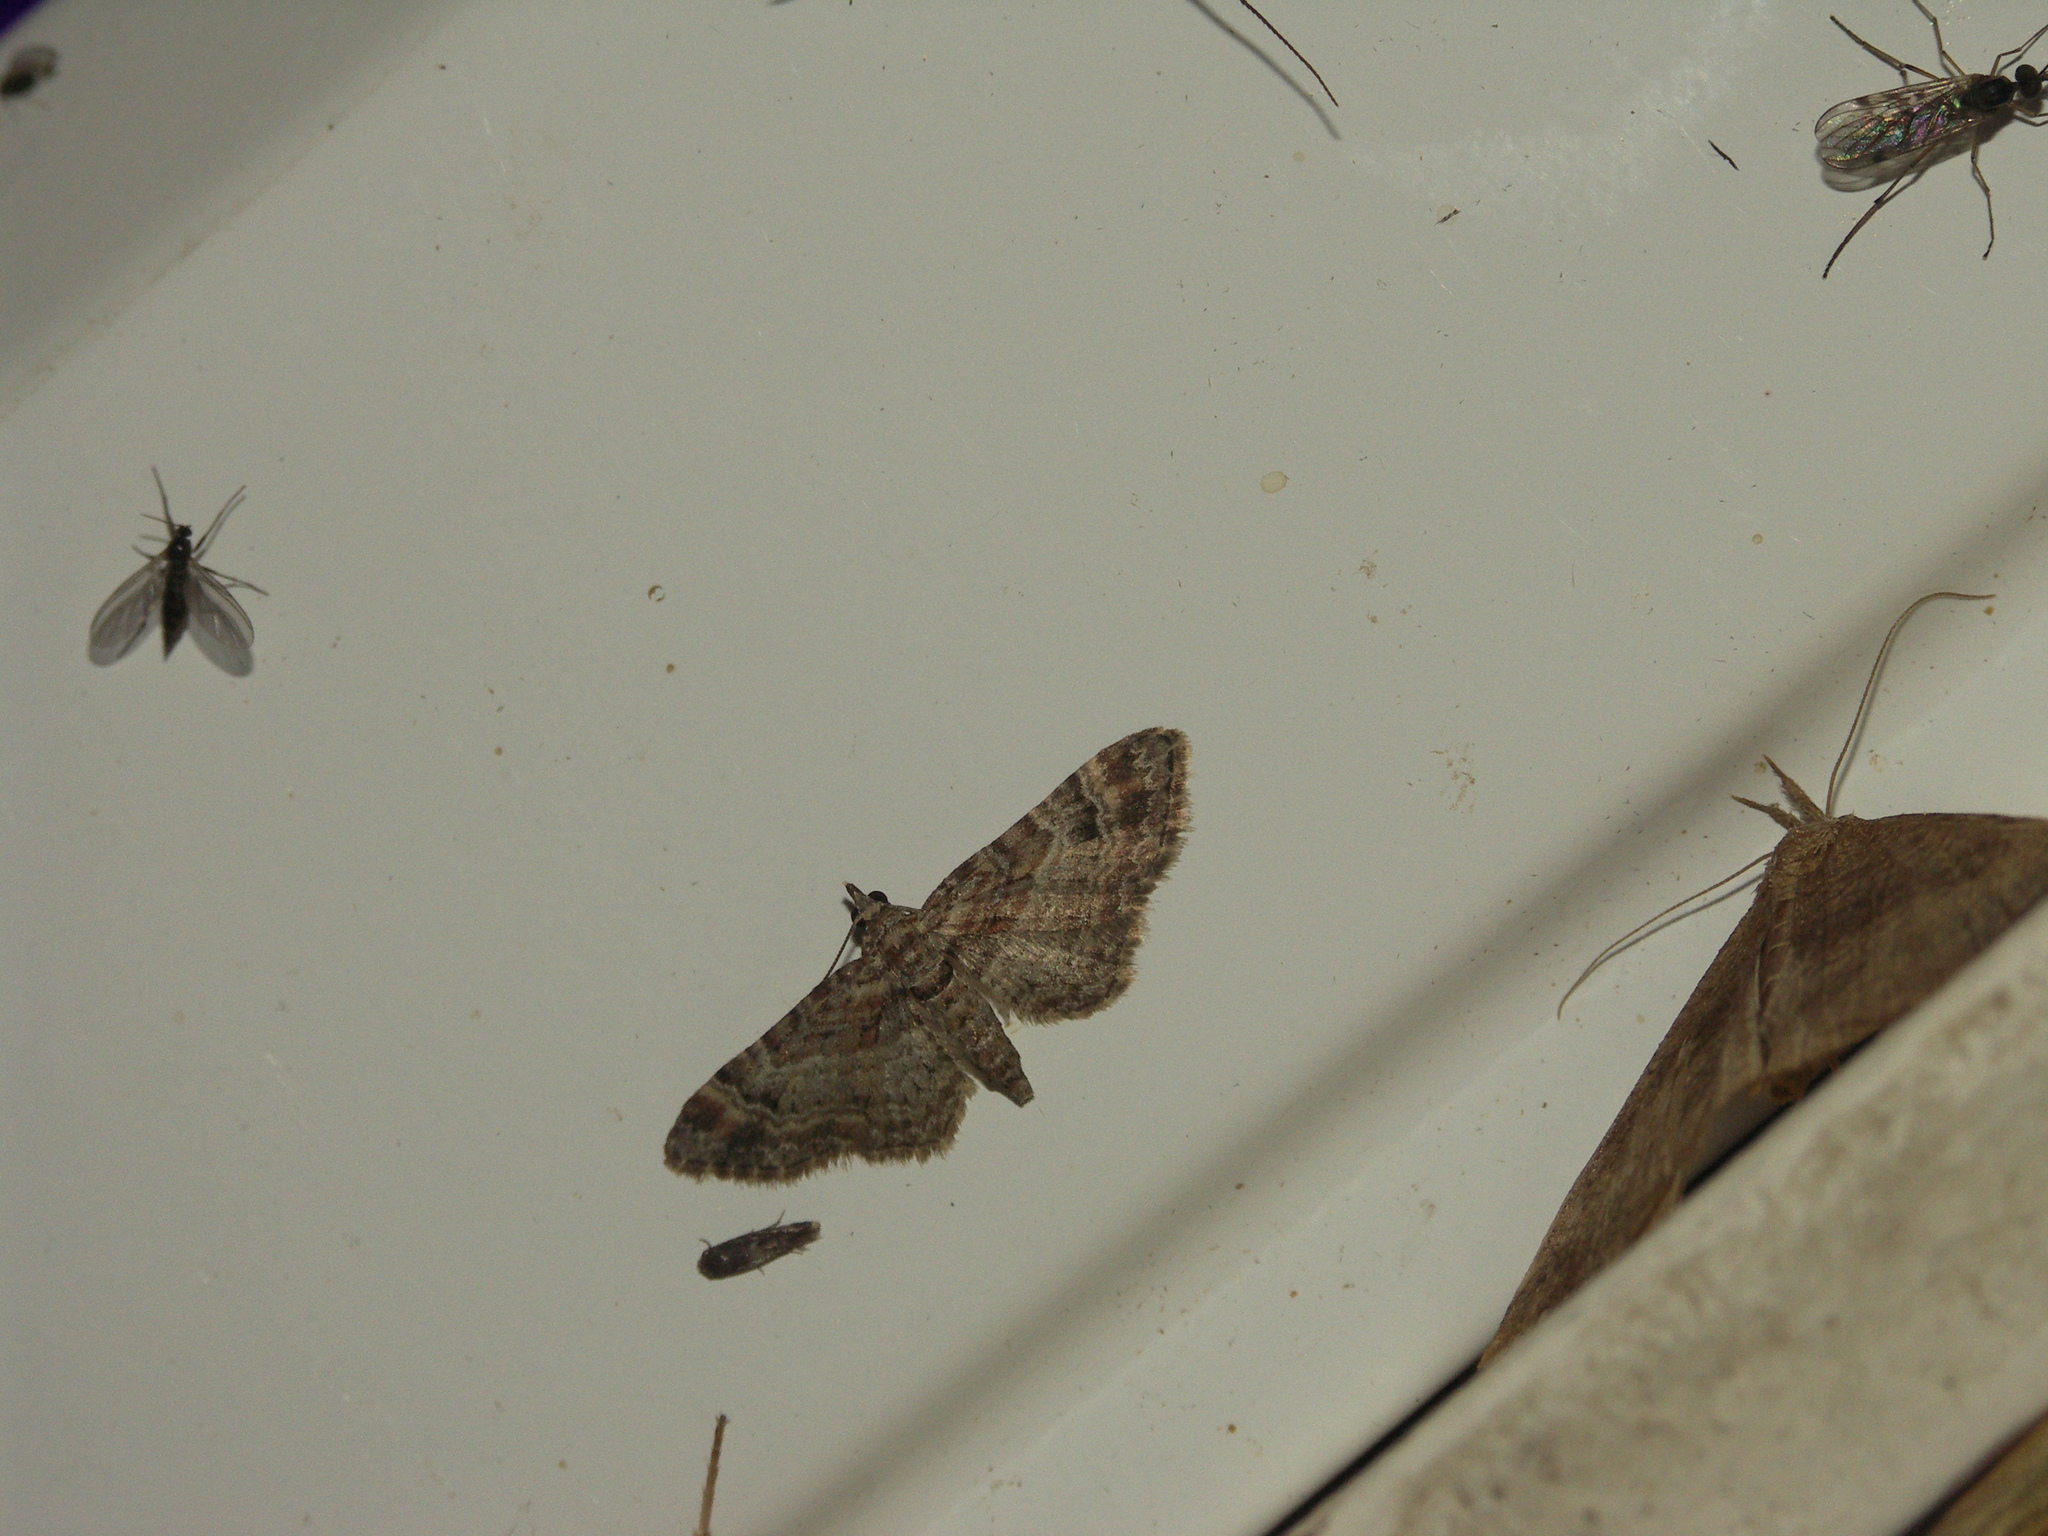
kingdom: Animalia
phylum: Arthropoda
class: Insecta
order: Lepidoptera
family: Geometridae
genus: Gymnoscelis
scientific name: Gymnoscelis rufifasciata
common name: Double-striped pug
